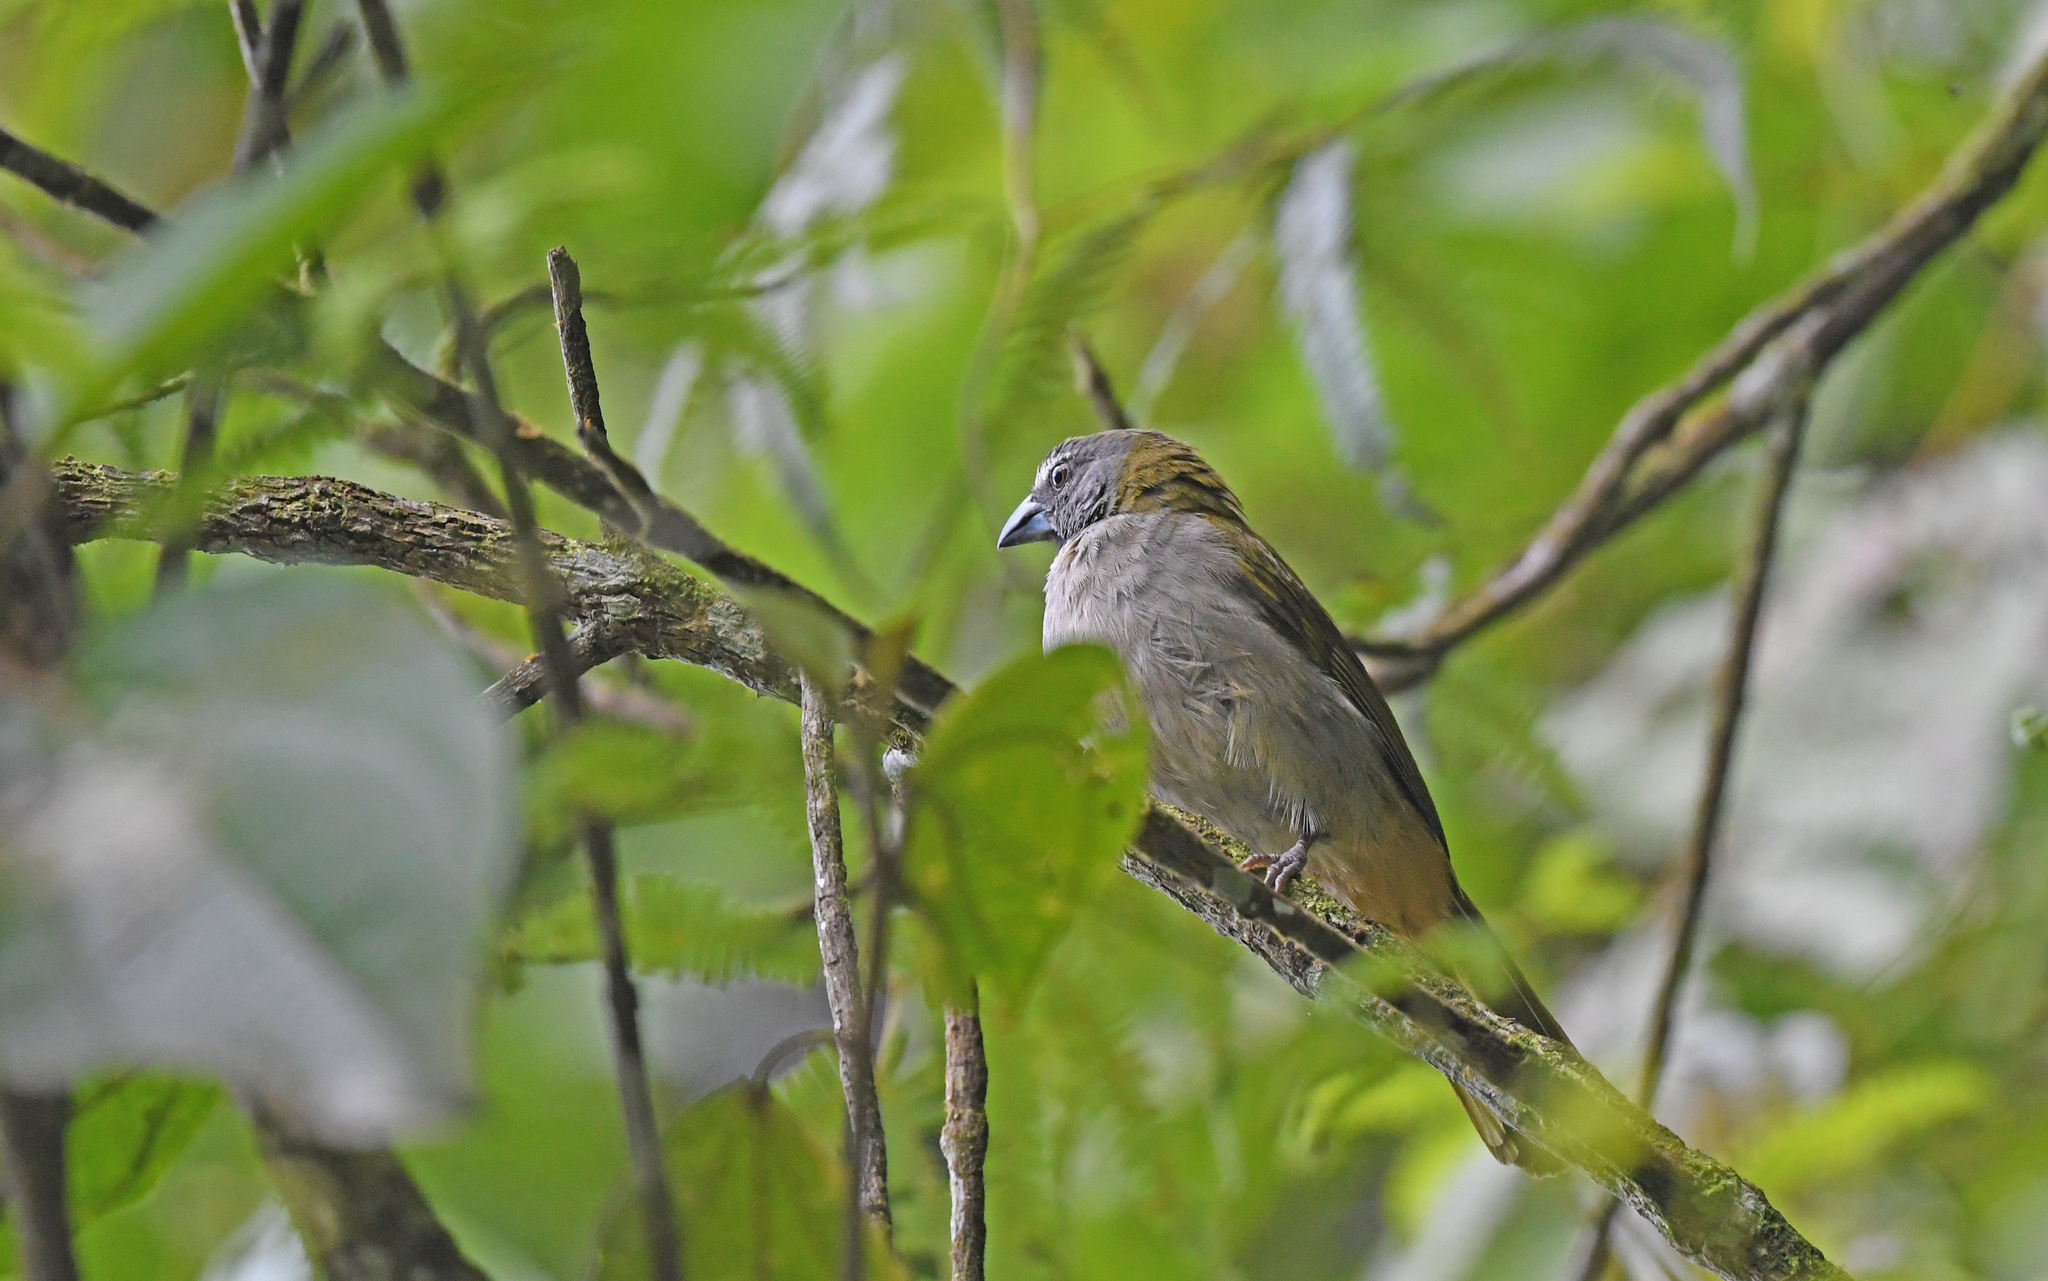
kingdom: Animalia
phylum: Chordata
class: Aves
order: Passeriformes
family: Thraupidae
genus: Saltator
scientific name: Saltator maximus
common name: Buff-throated saltator
